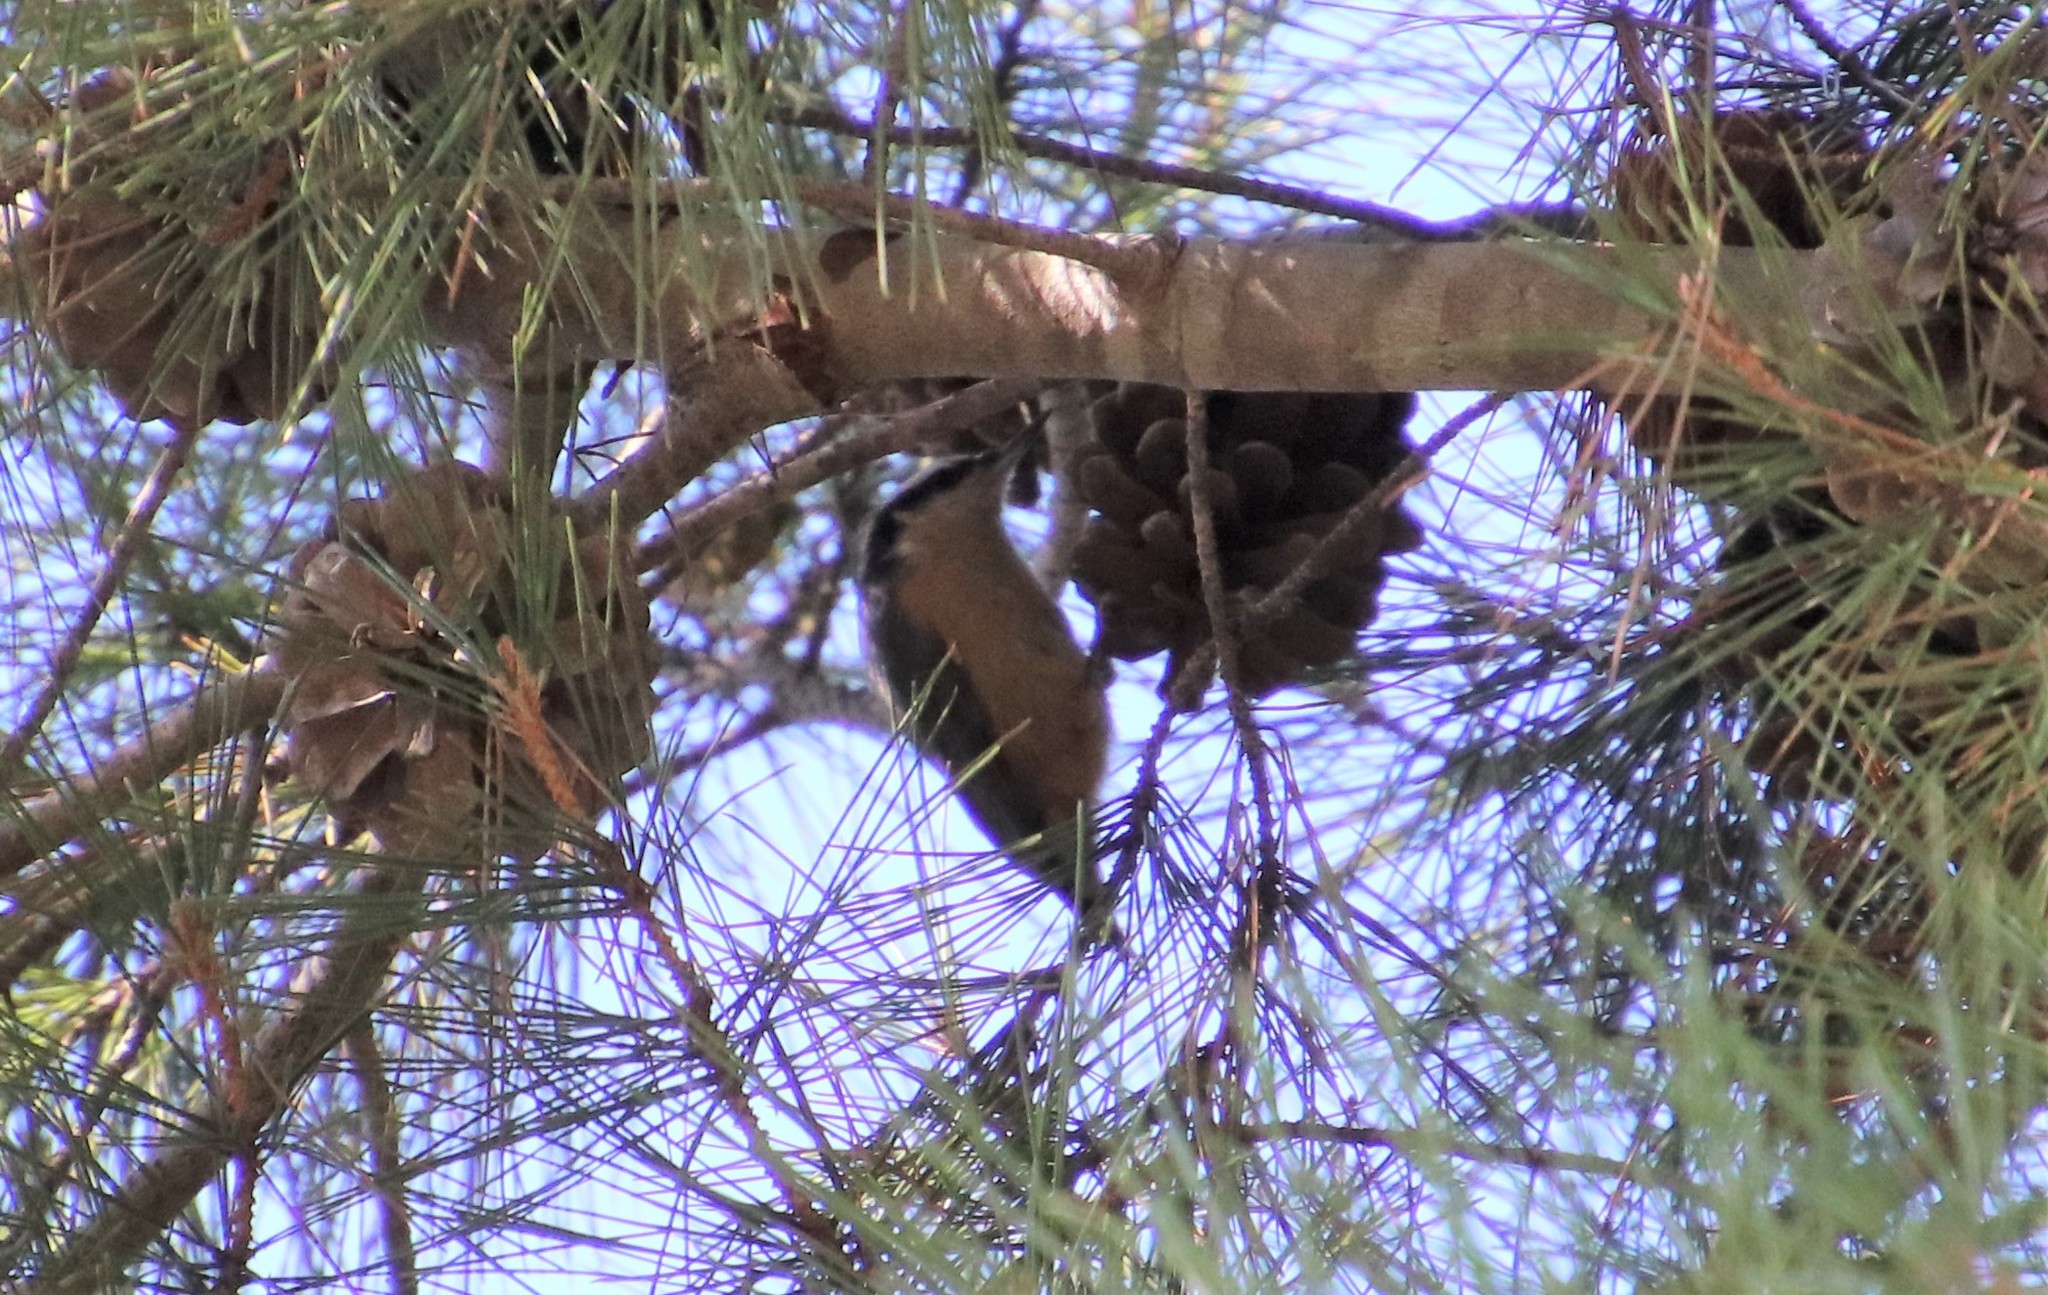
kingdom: Animalia
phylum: Chordata
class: Aves
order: Passeriformes
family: Sittidae
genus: Sitta
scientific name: Sitta canadensis
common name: Red-breasted nuthatch
